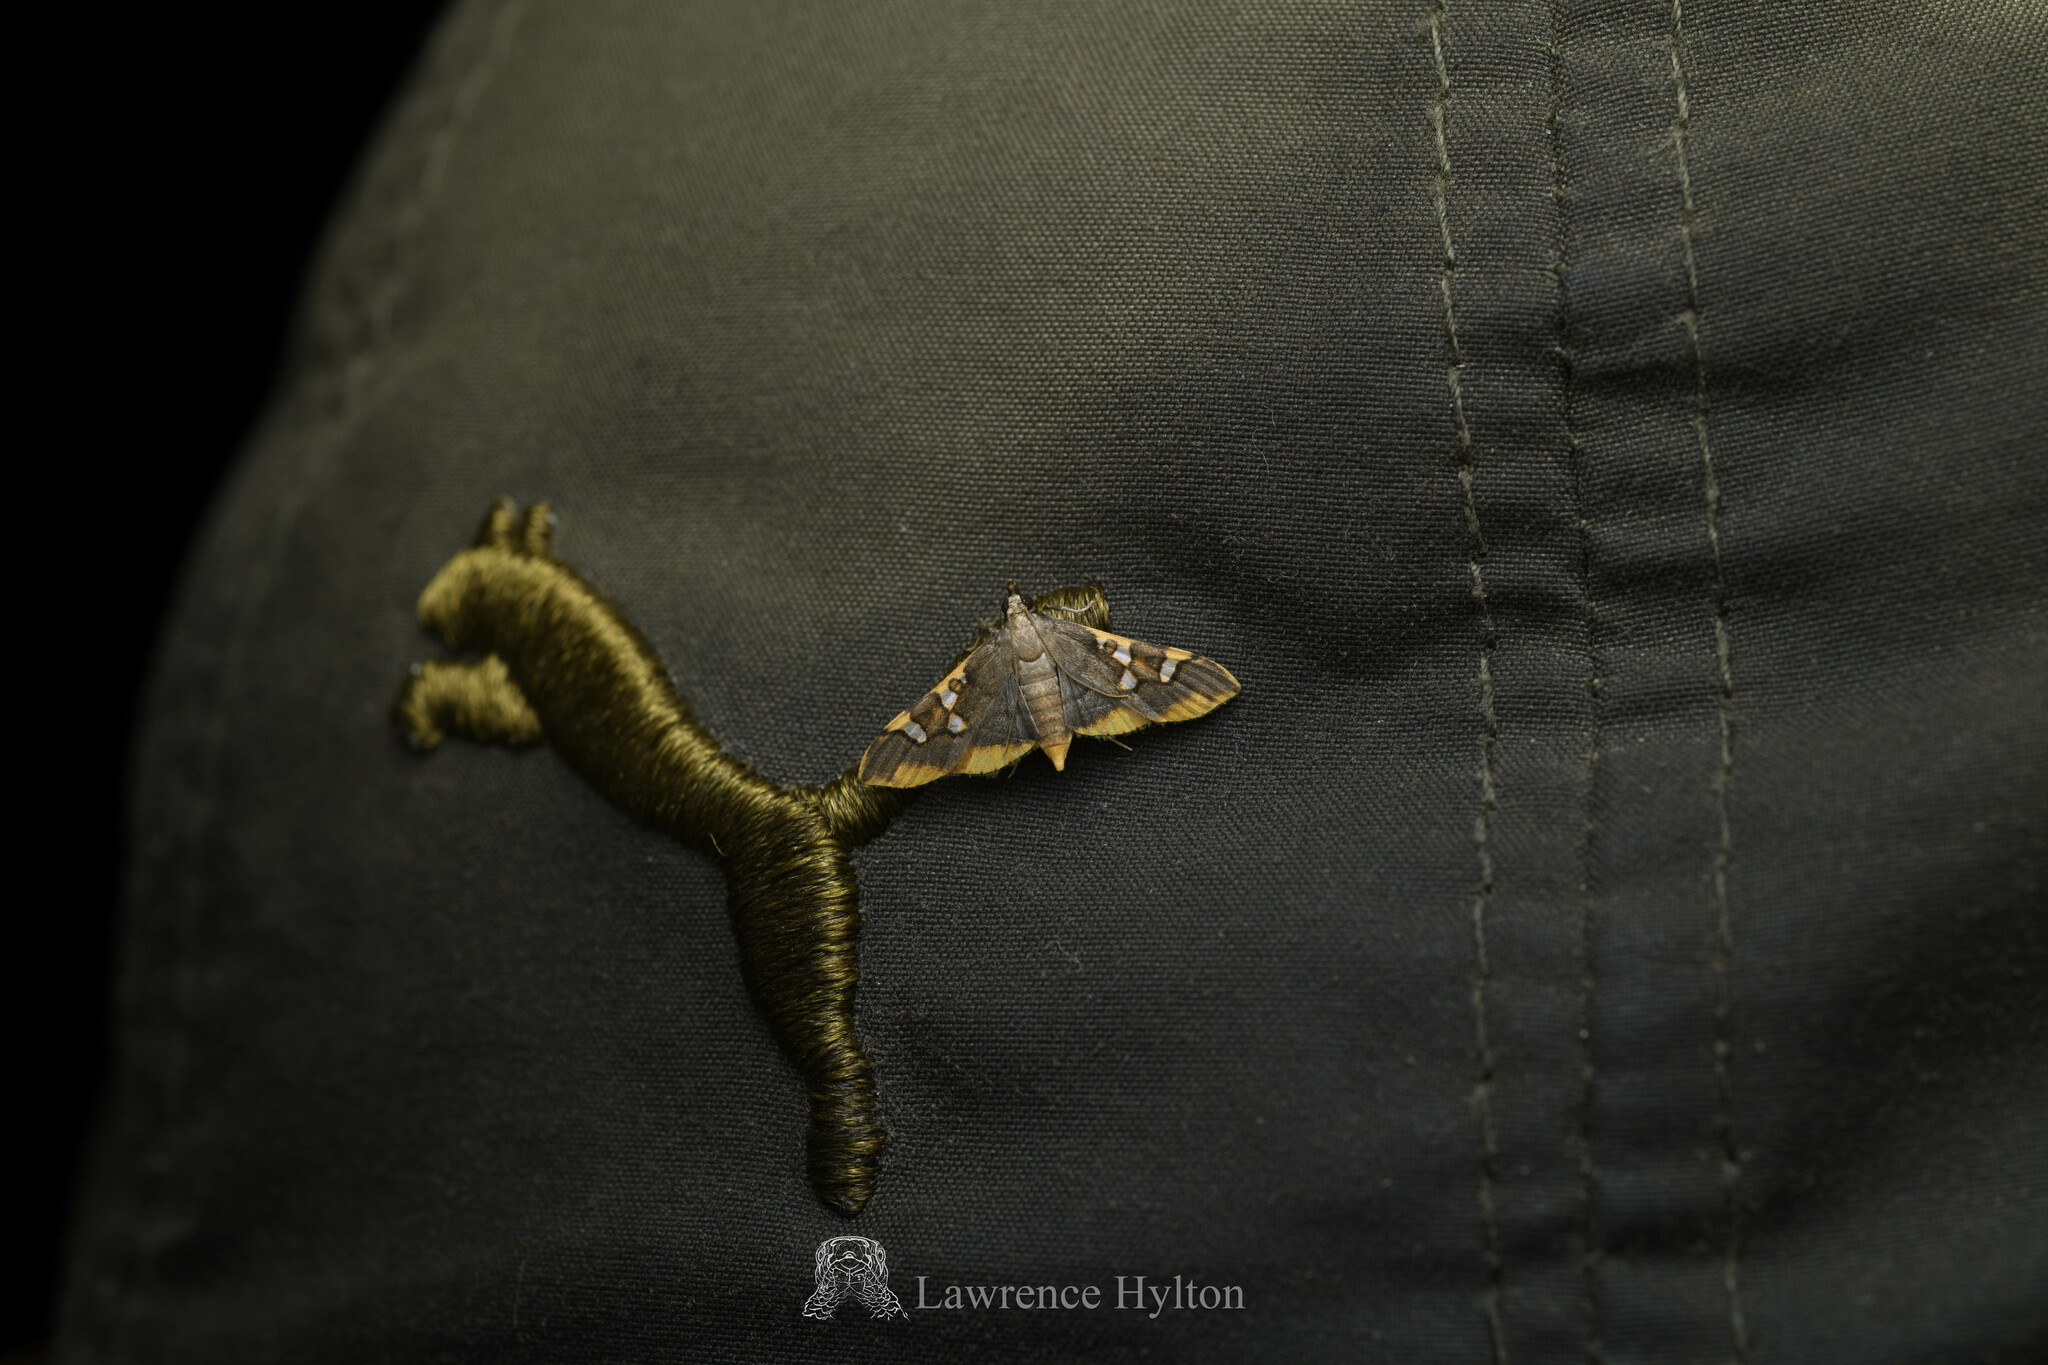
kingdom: Animalia
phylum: Arthropoda
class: Insecta
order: Lepidoptera
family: Crambidae
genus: Prophantis
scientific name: Prophantis adusta
